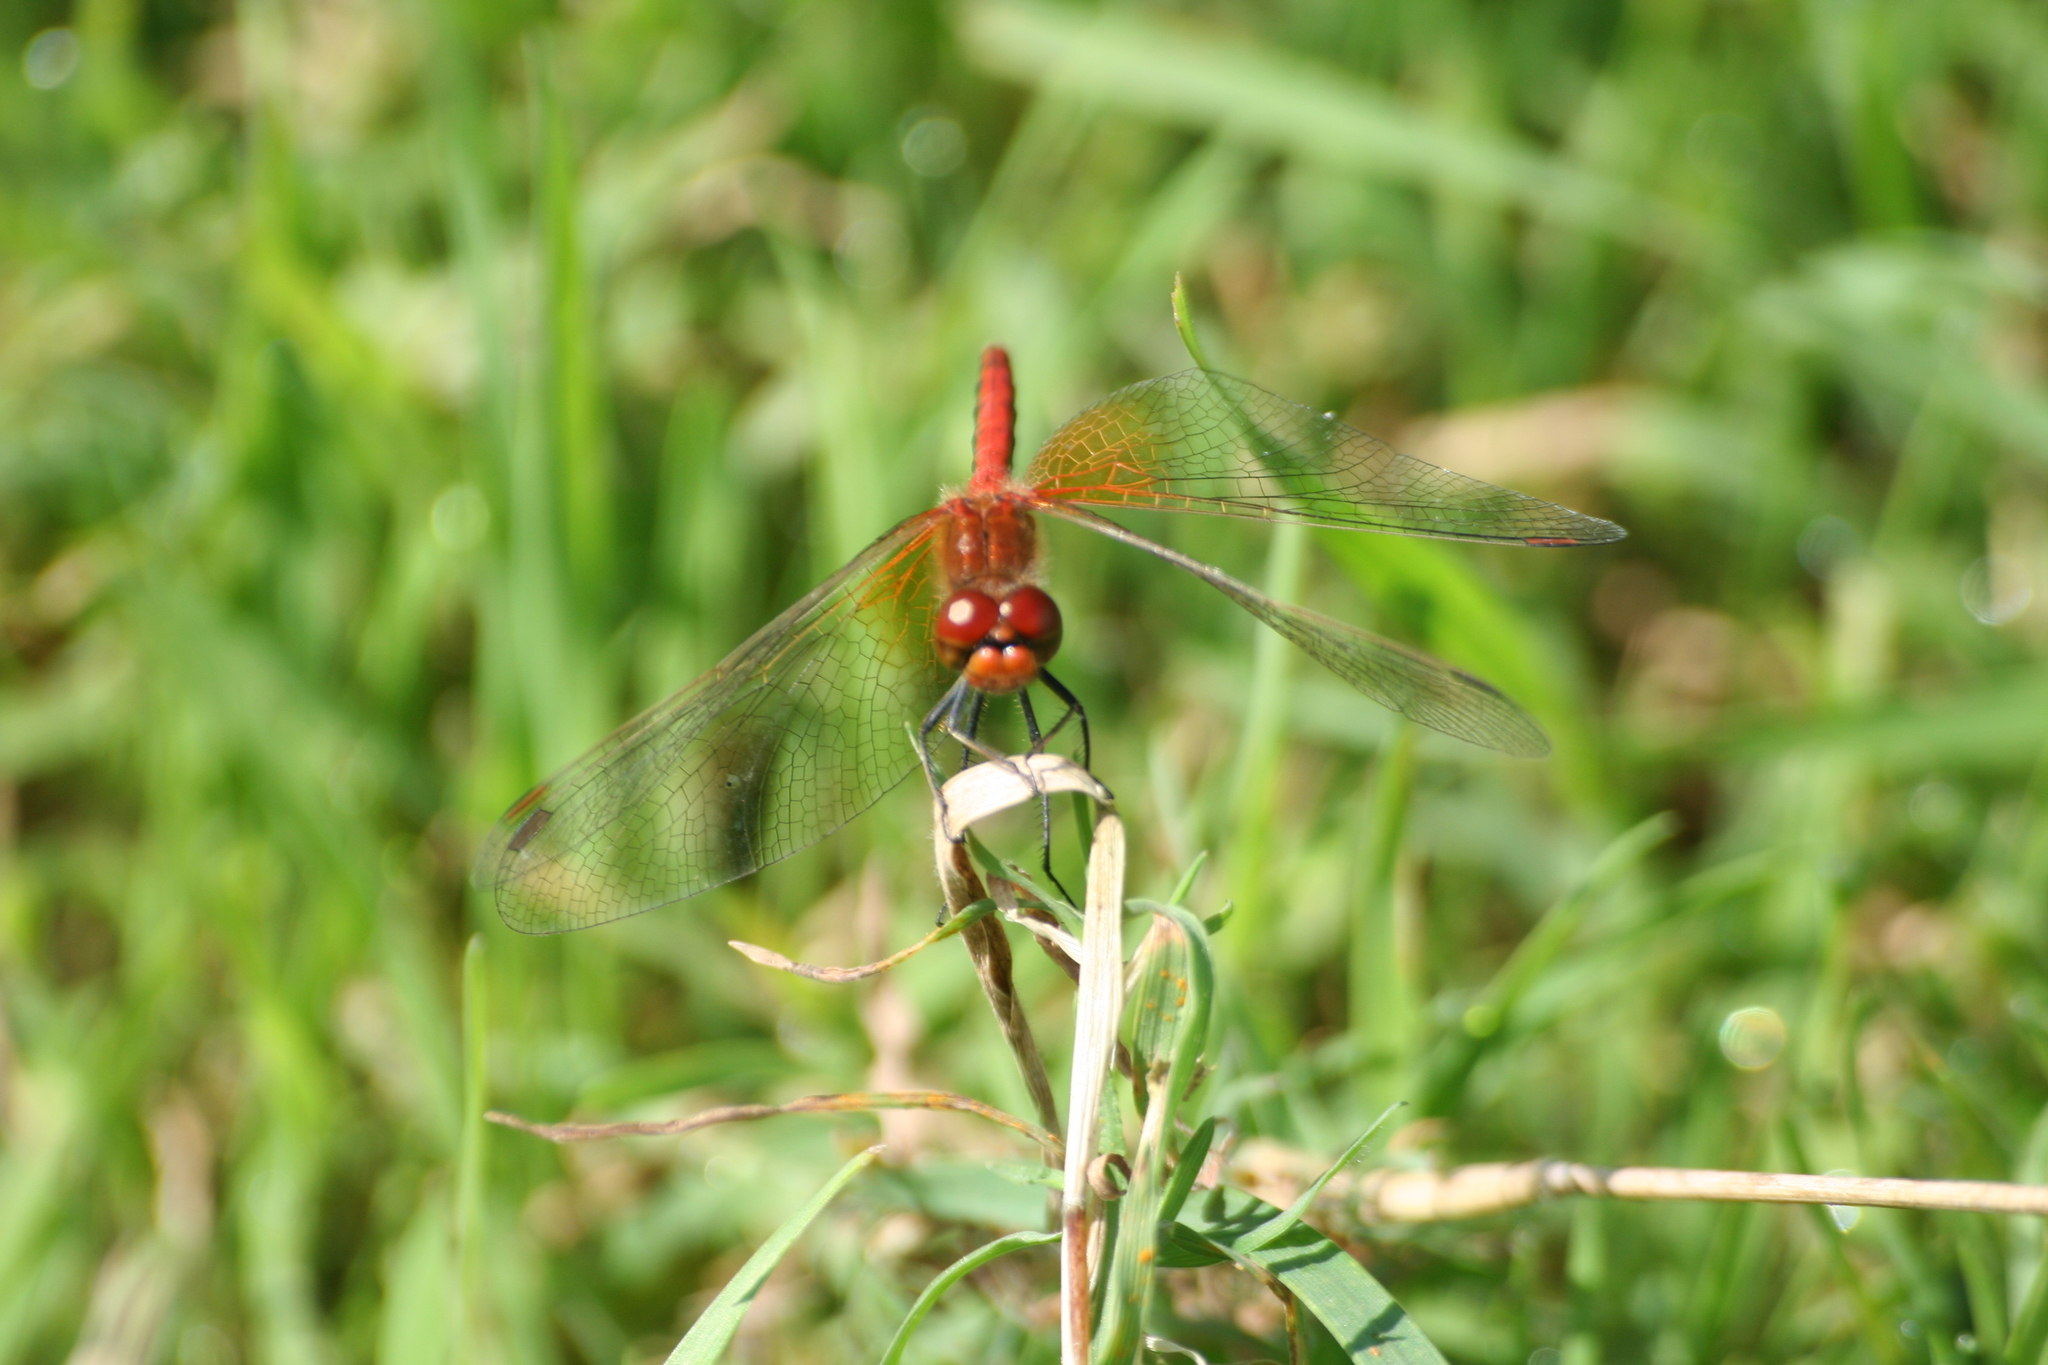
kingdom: Animalia
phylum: Arthropoda
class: Insecta
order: Odonata
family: Libellulidae
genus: Sympetrum
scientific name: Sympetrum flaveolum
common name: Yellow-winged darter
